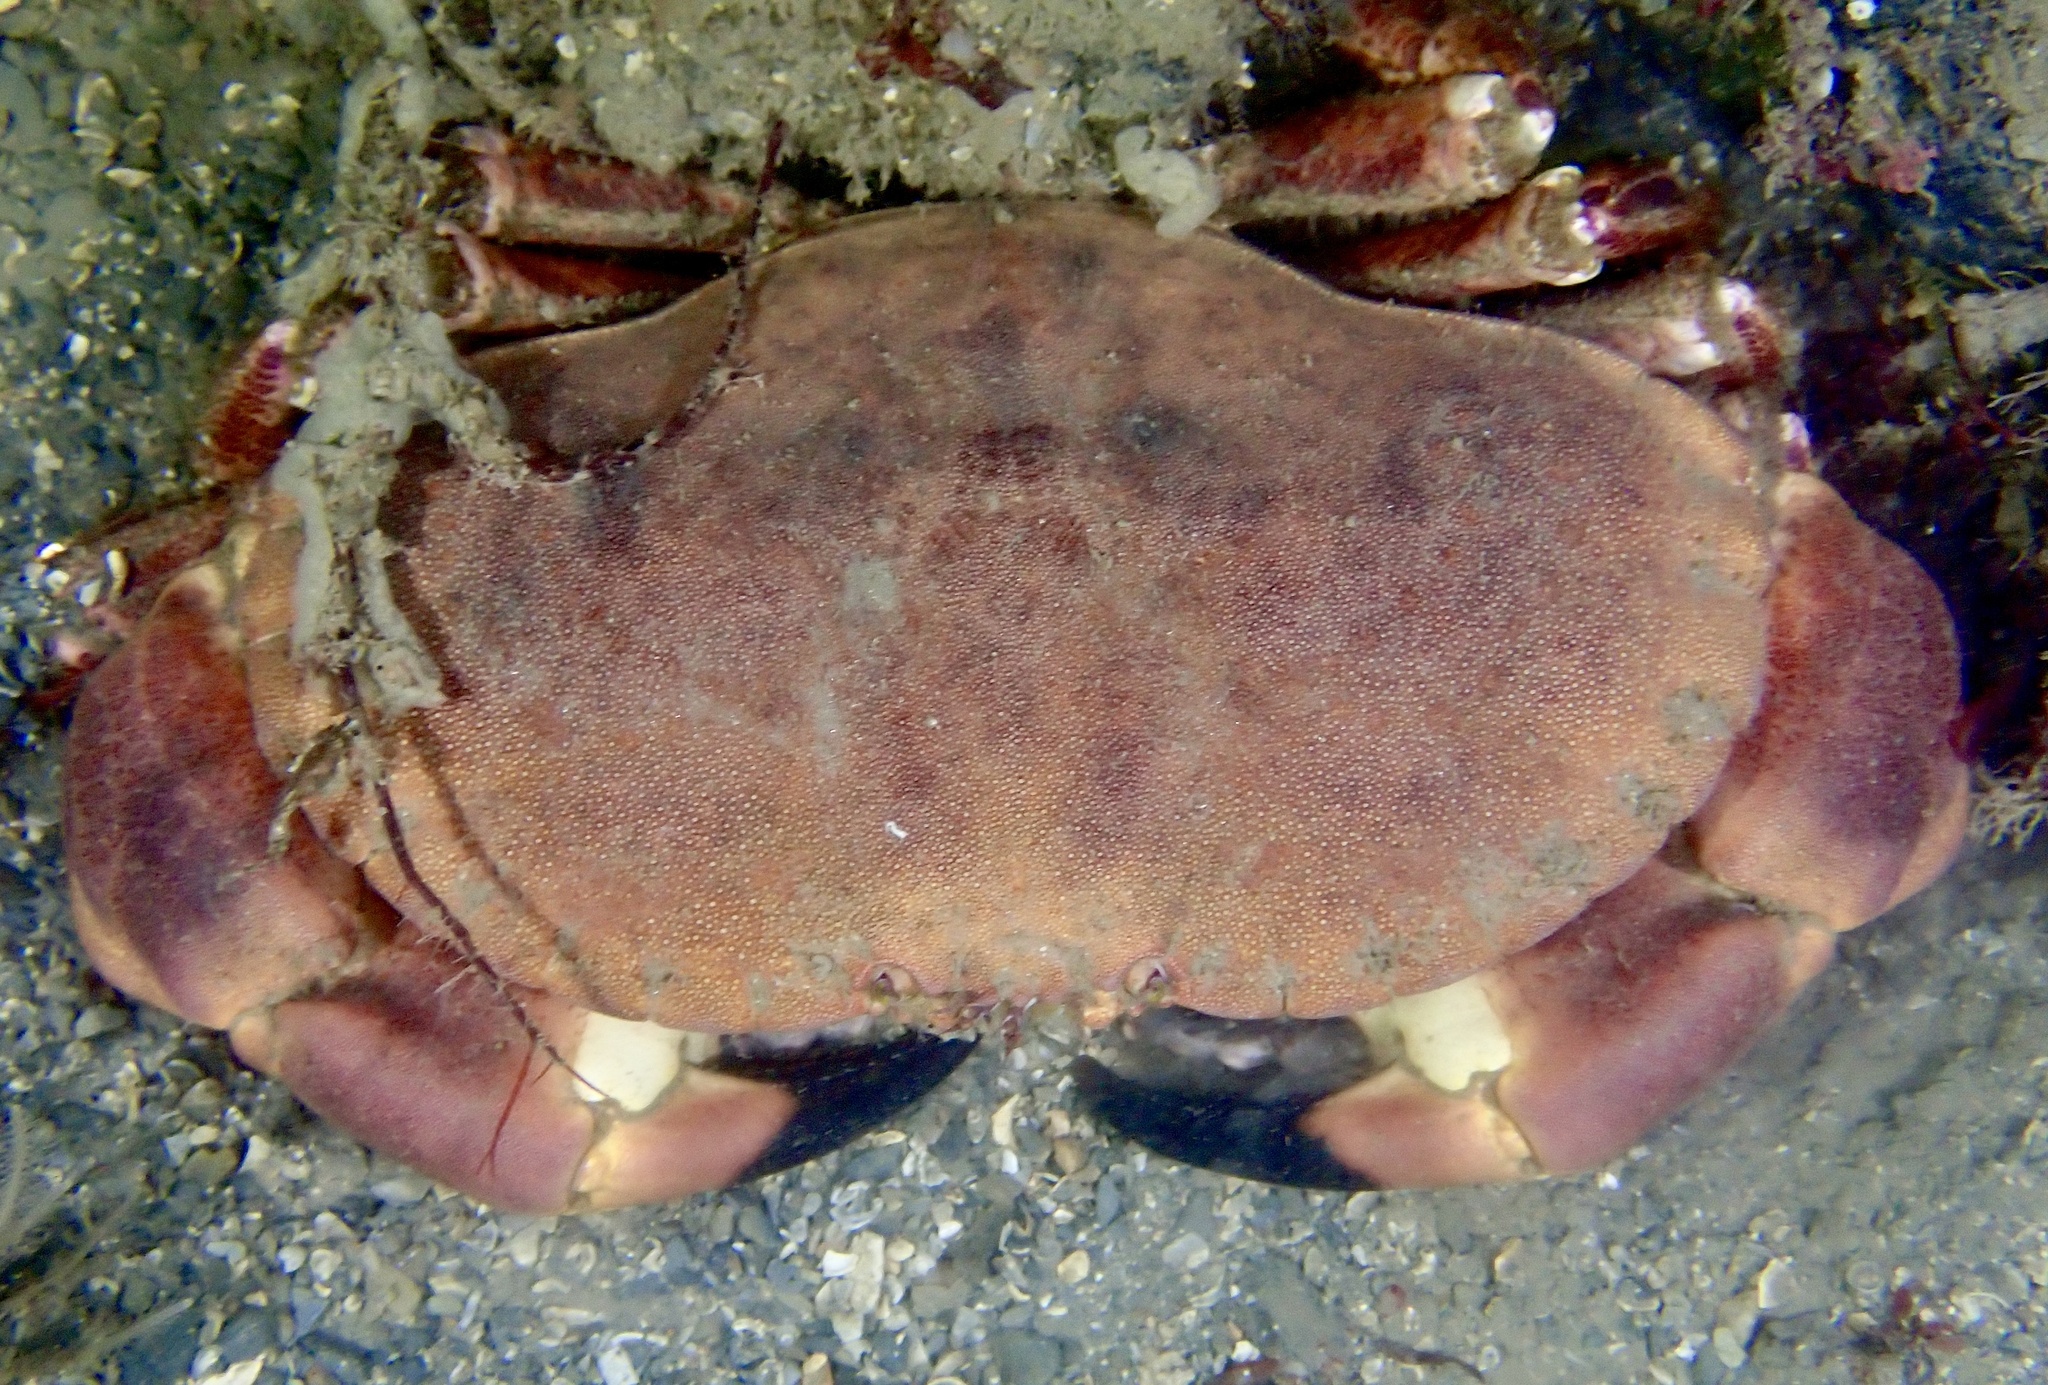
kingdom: Animalia
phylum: Arthropoda
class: Malacostraca
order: Decapoda
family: Cancridae
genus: Cancer
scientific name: Cancer pagurus
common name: Edible crab
